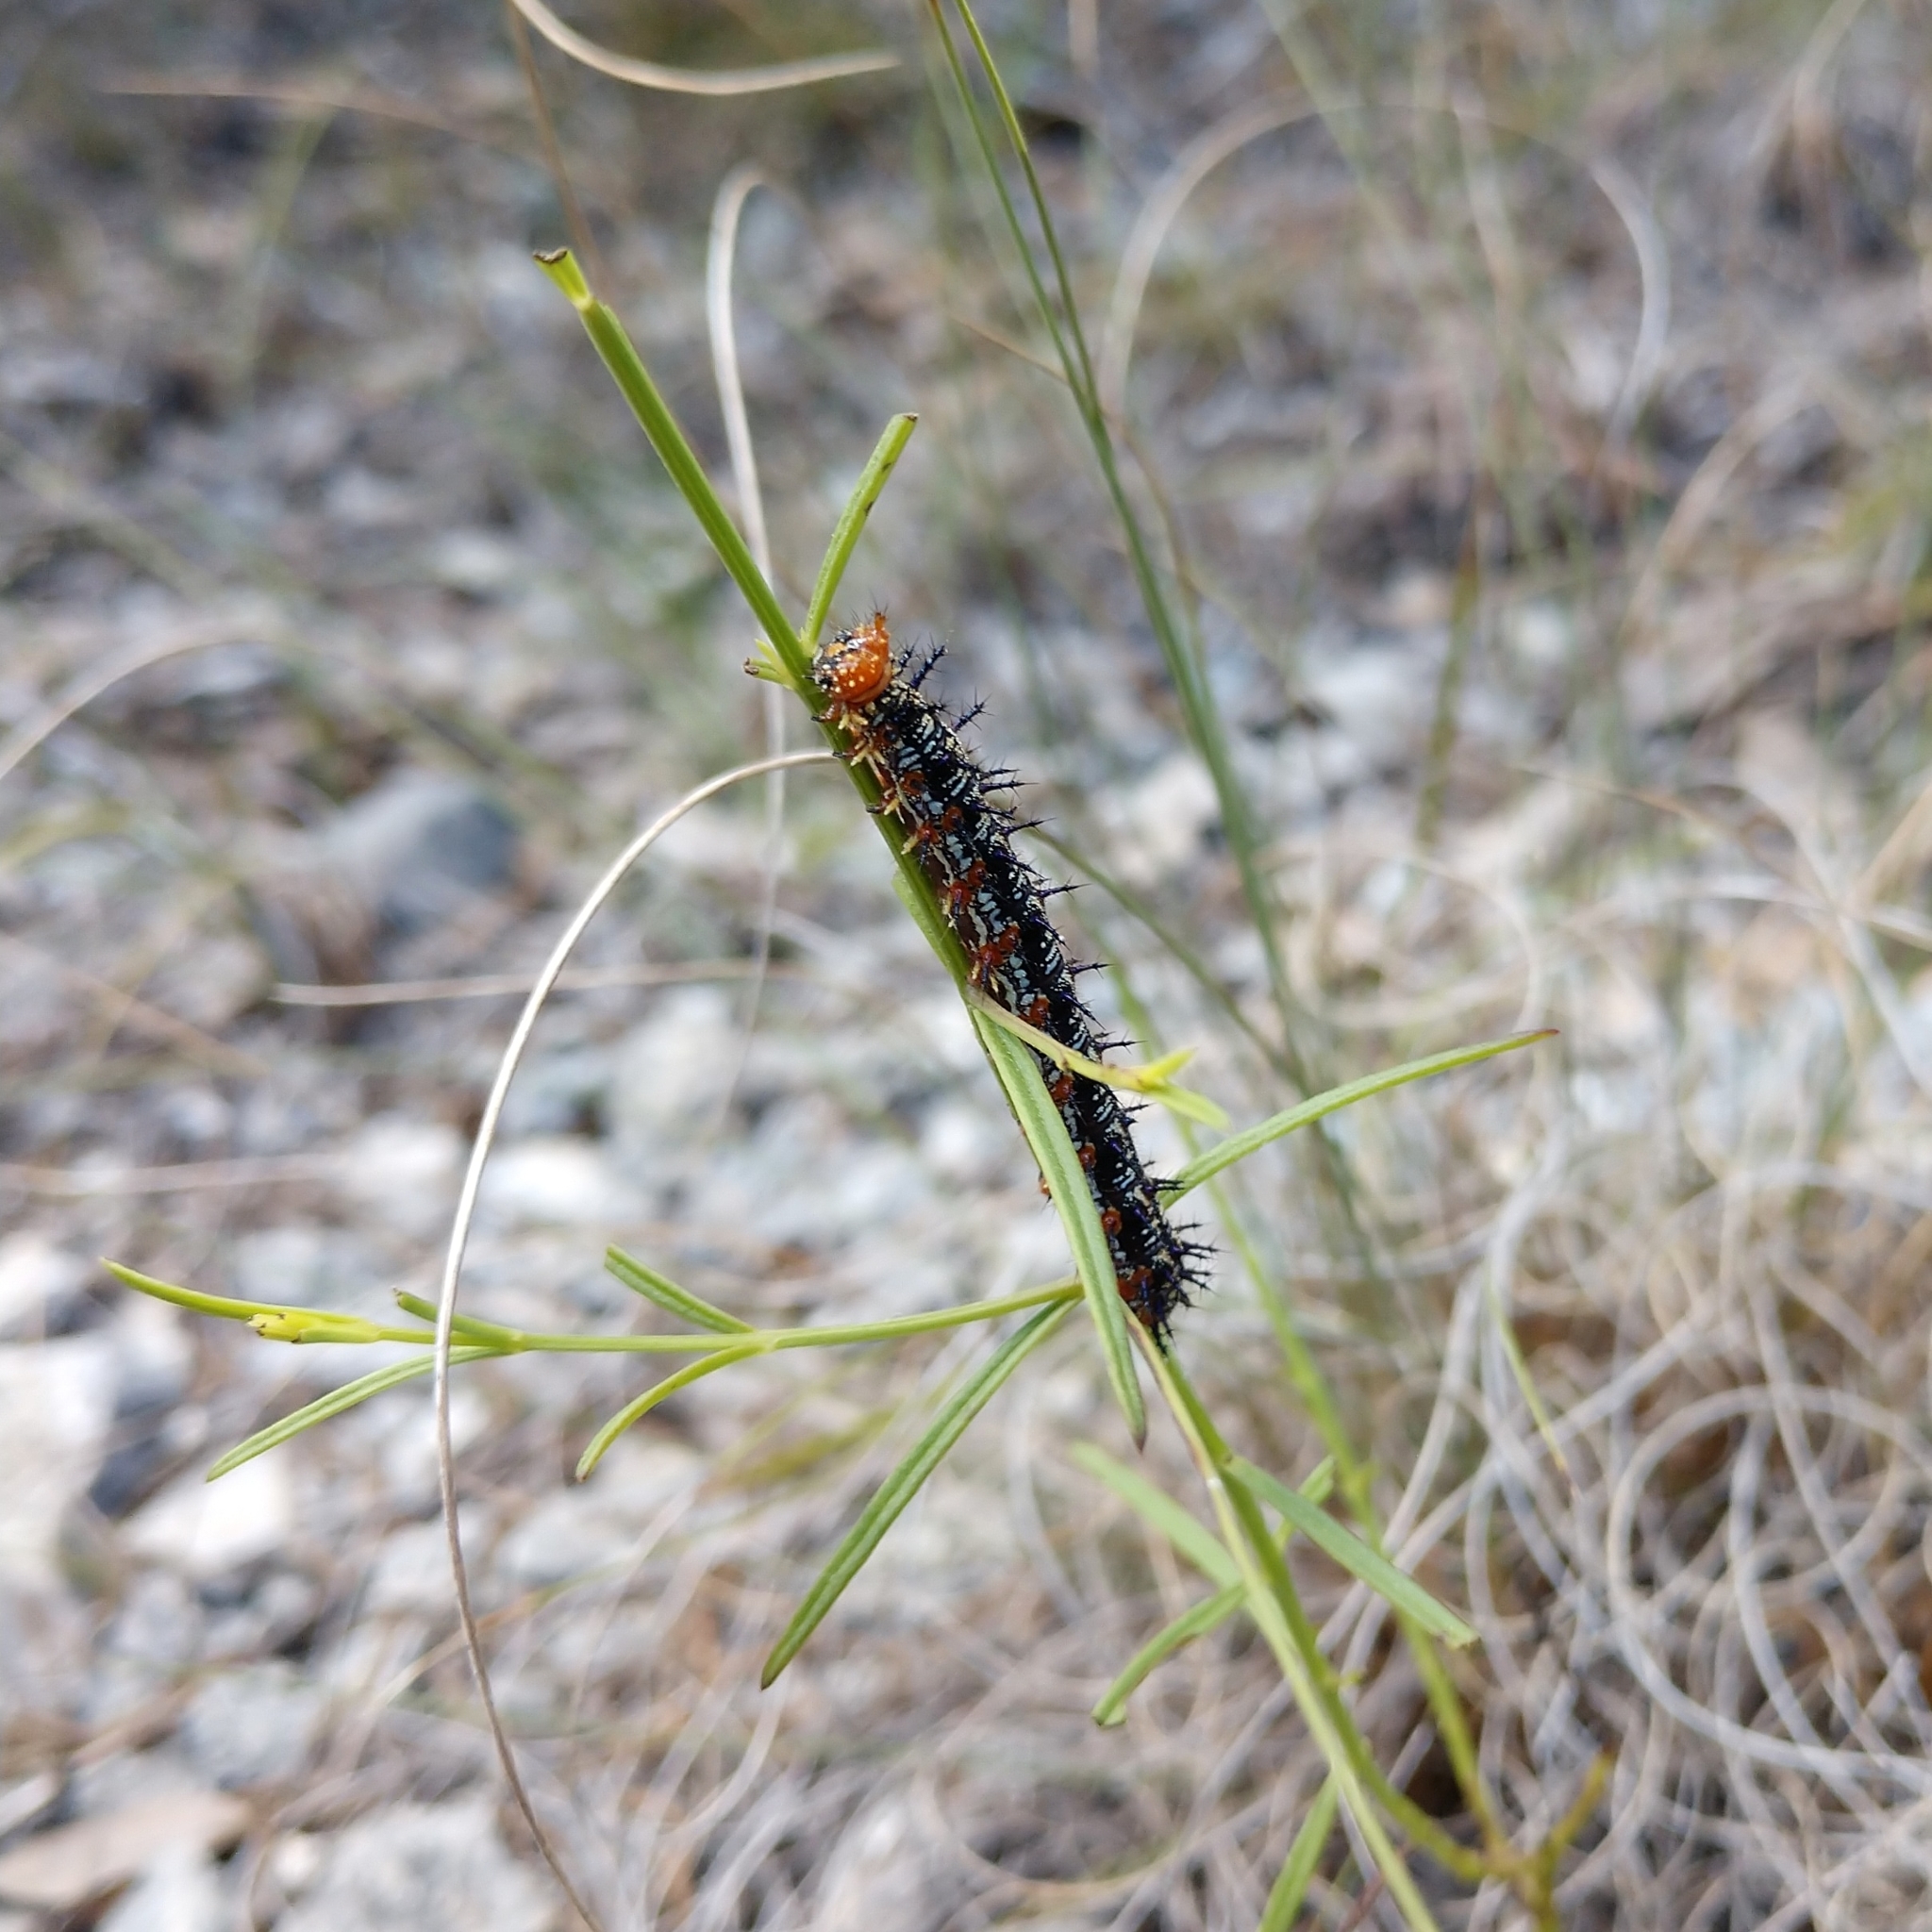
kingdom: Animalia
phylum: Arthropoda
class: Insecta
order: Lepidoptera
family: Nymphalidae
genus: Junonia
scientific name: Junonia coenia
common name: Common buckeye
